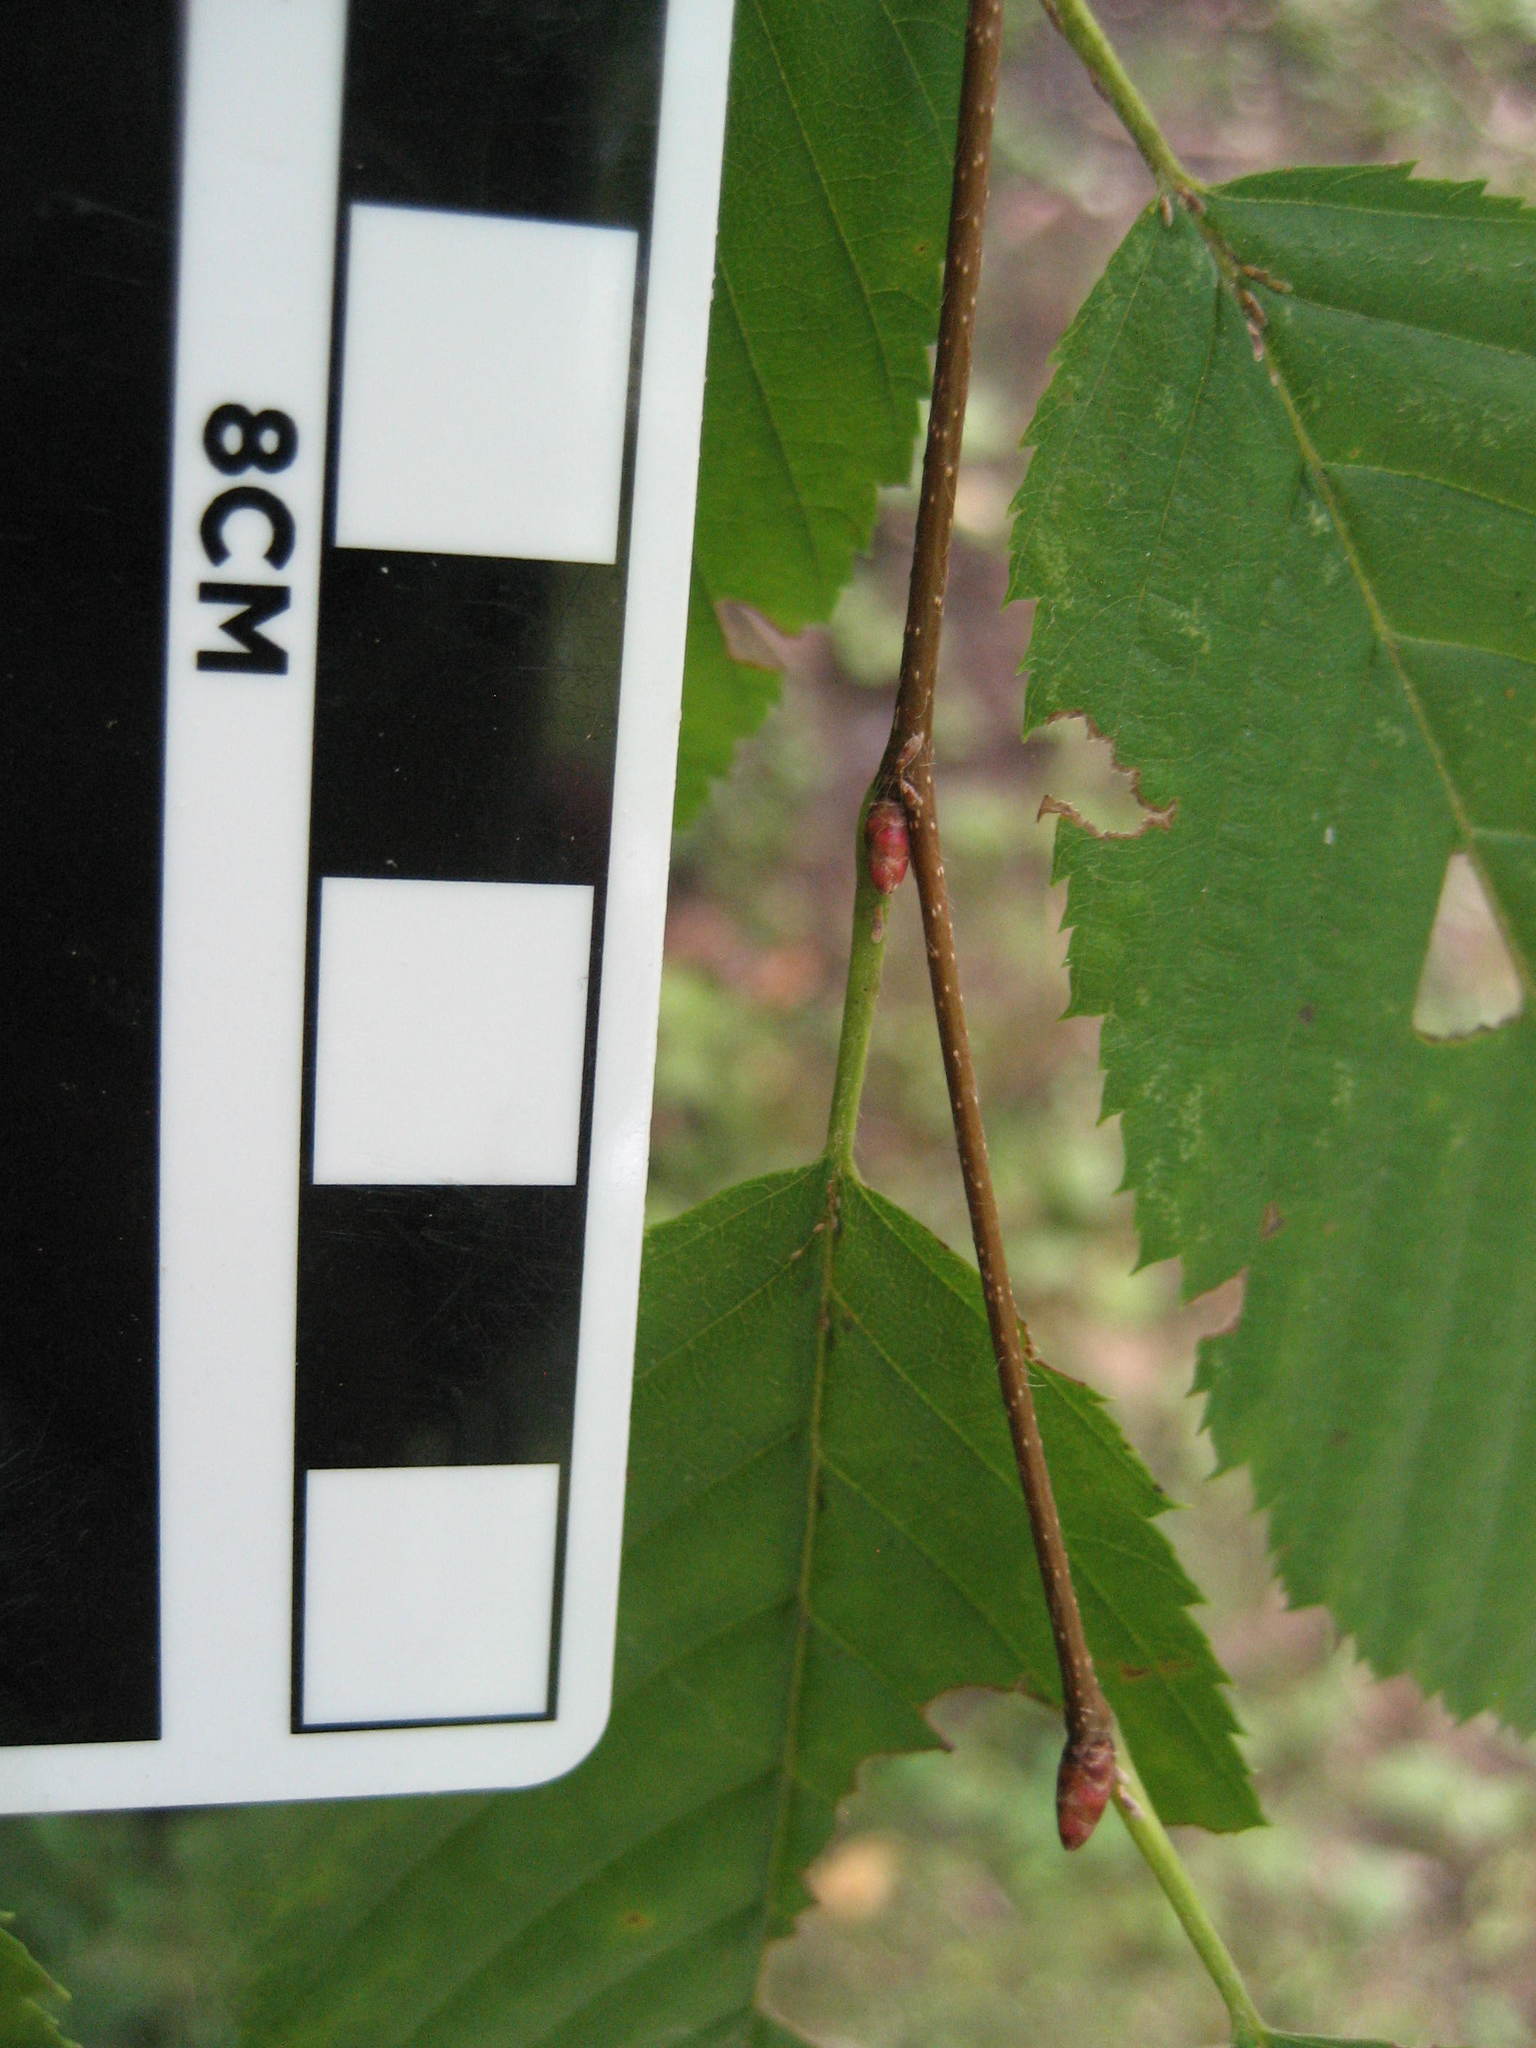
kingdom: Plantae
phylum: Tracheophyta
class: Magnoliopsida
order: Fagales
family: Betulaceae
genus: Carpinus
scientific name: Carpinus caroliniana
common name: American hornbeam
